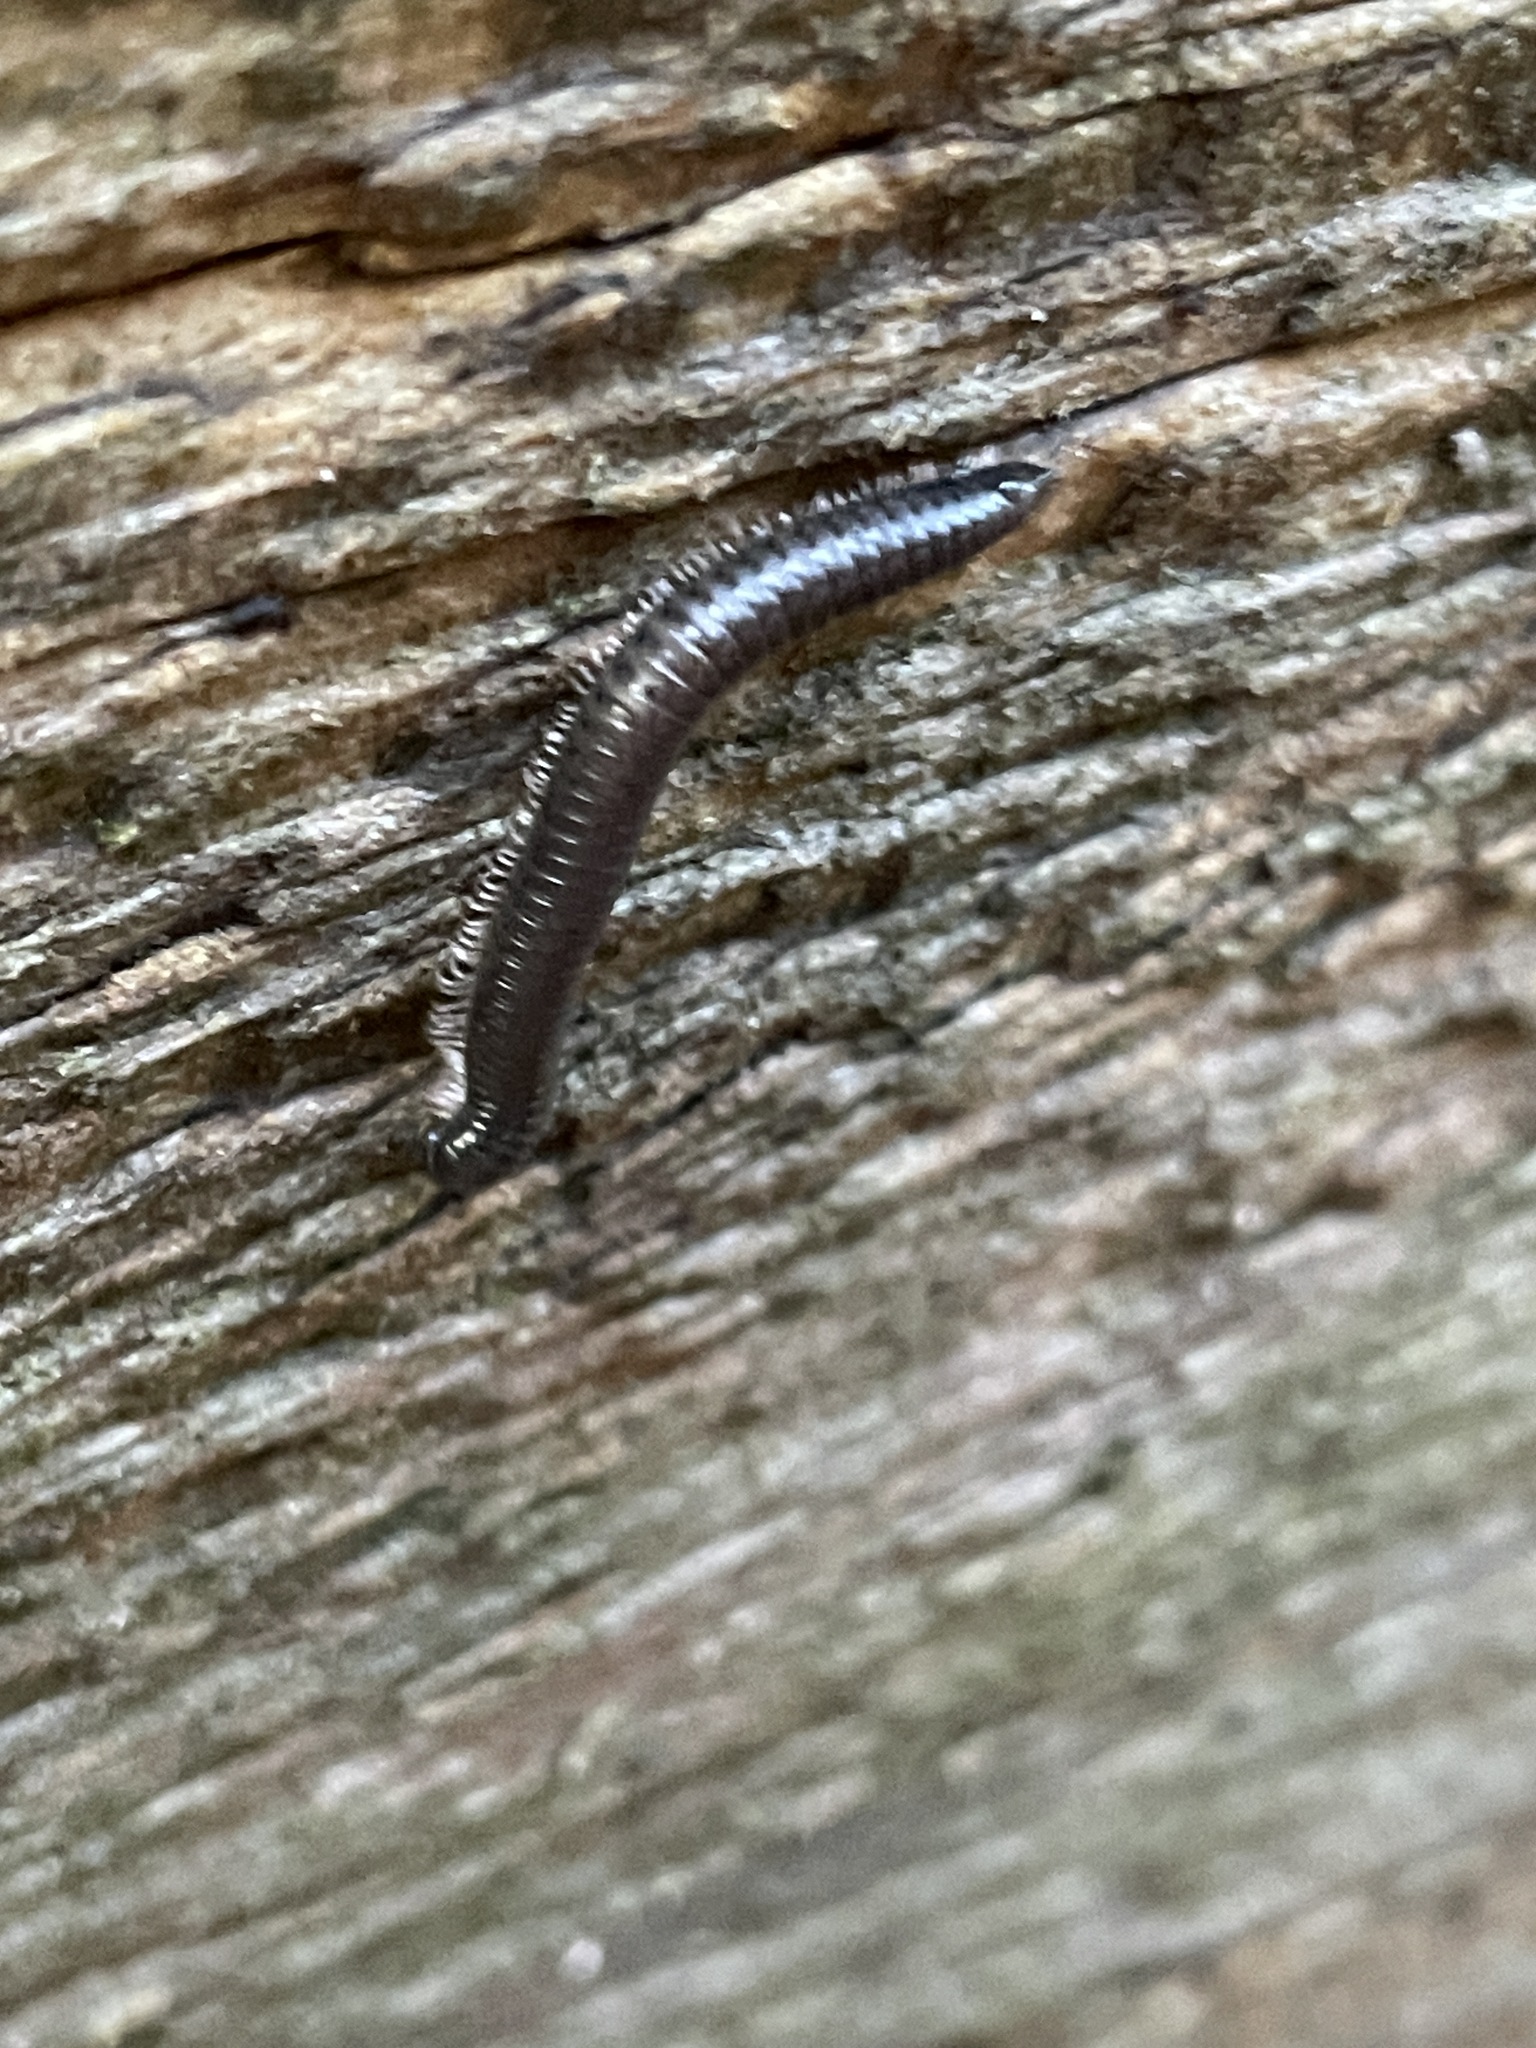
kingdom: Animalia
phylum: Arthropoda
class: Diplopoda
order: Julida
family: Julidae
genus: Ommatoiulus
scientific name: Ommatoiulus moreleti
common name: Portuguese millipede
